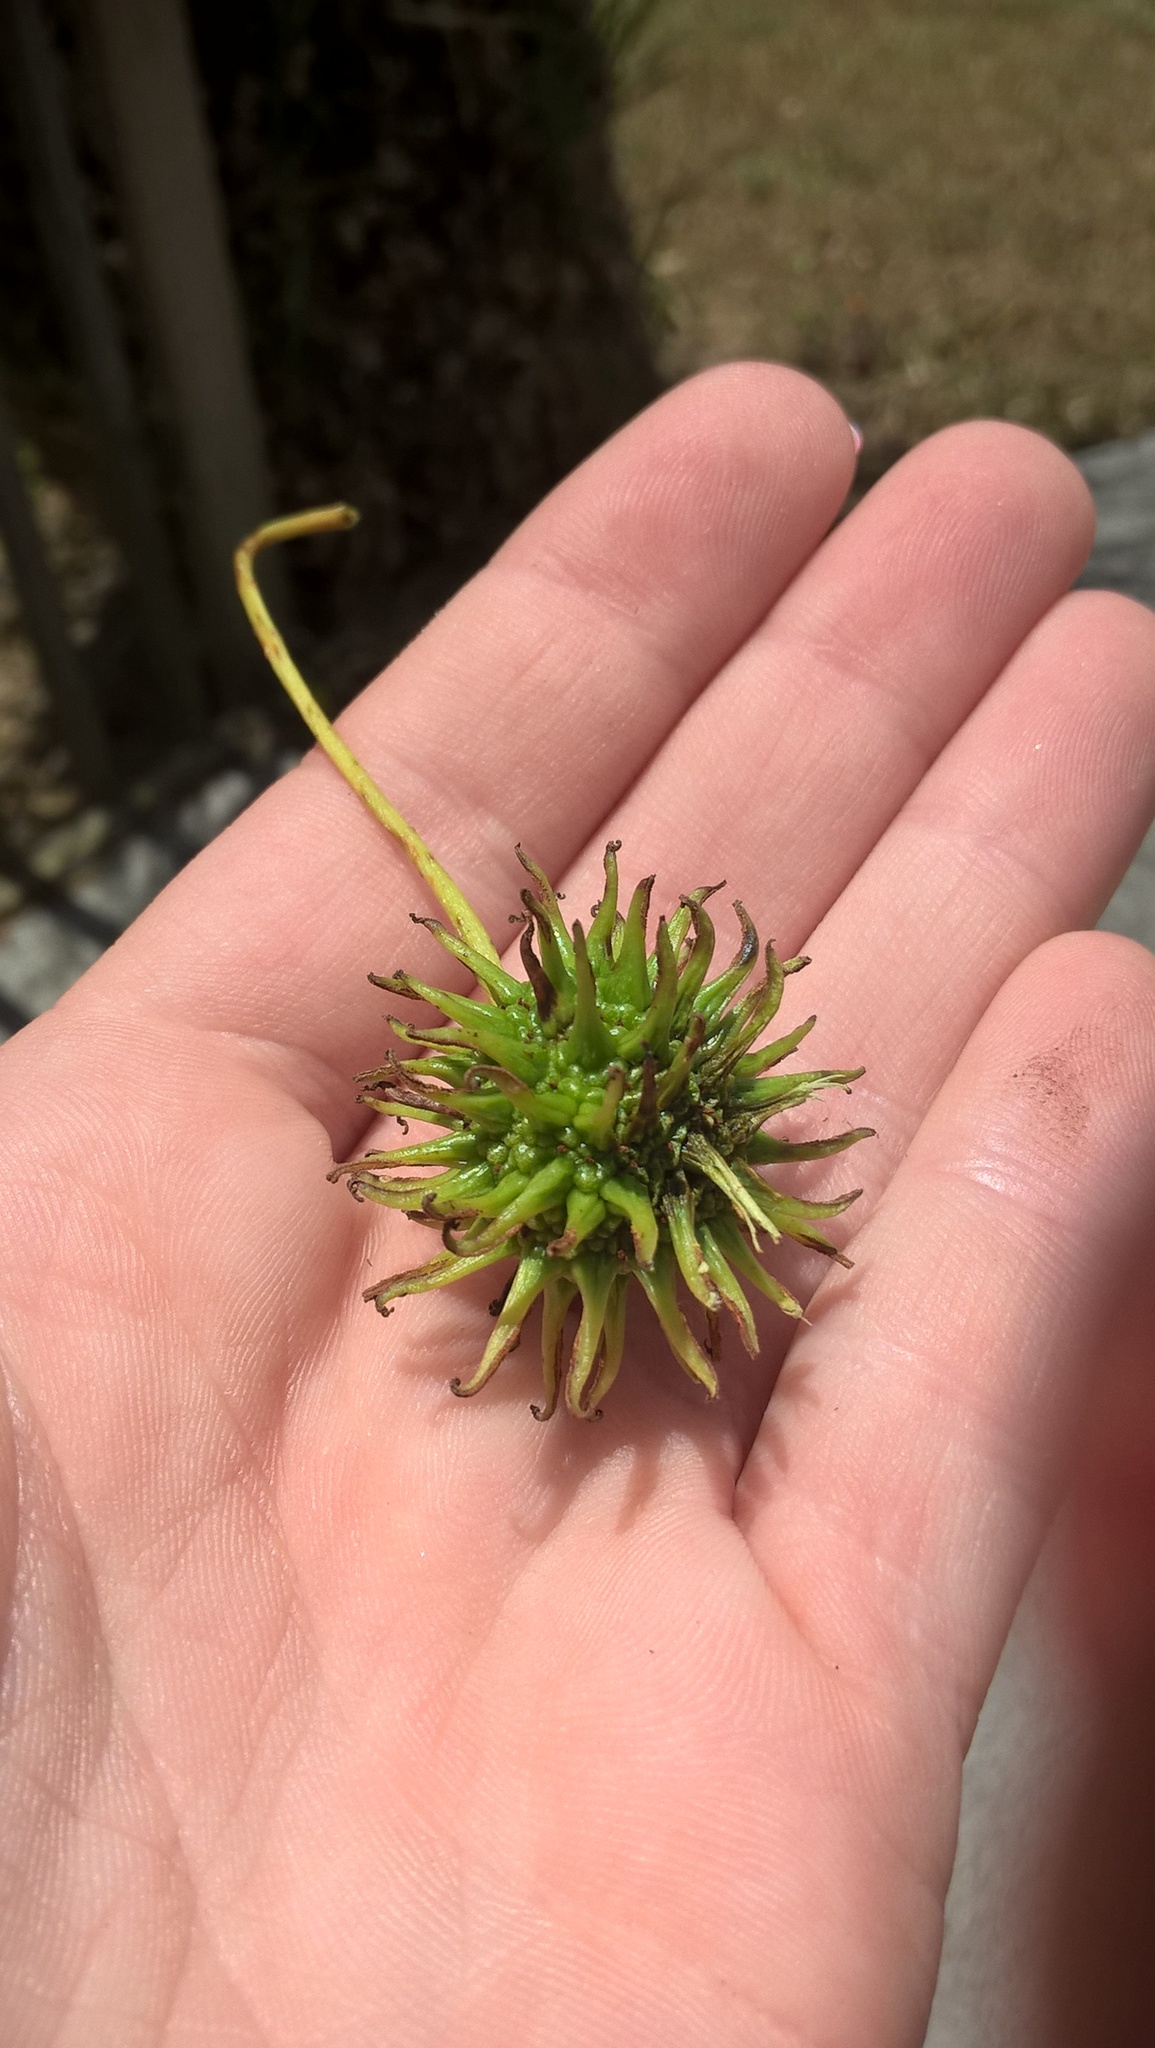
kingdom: Plantae
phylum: Tracheophyta
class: Magnoliopsida
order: Saxifragales
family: Altingiaceae
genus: Liquidambar
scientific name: Liquidambar styraciflua
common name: Sweet gum
